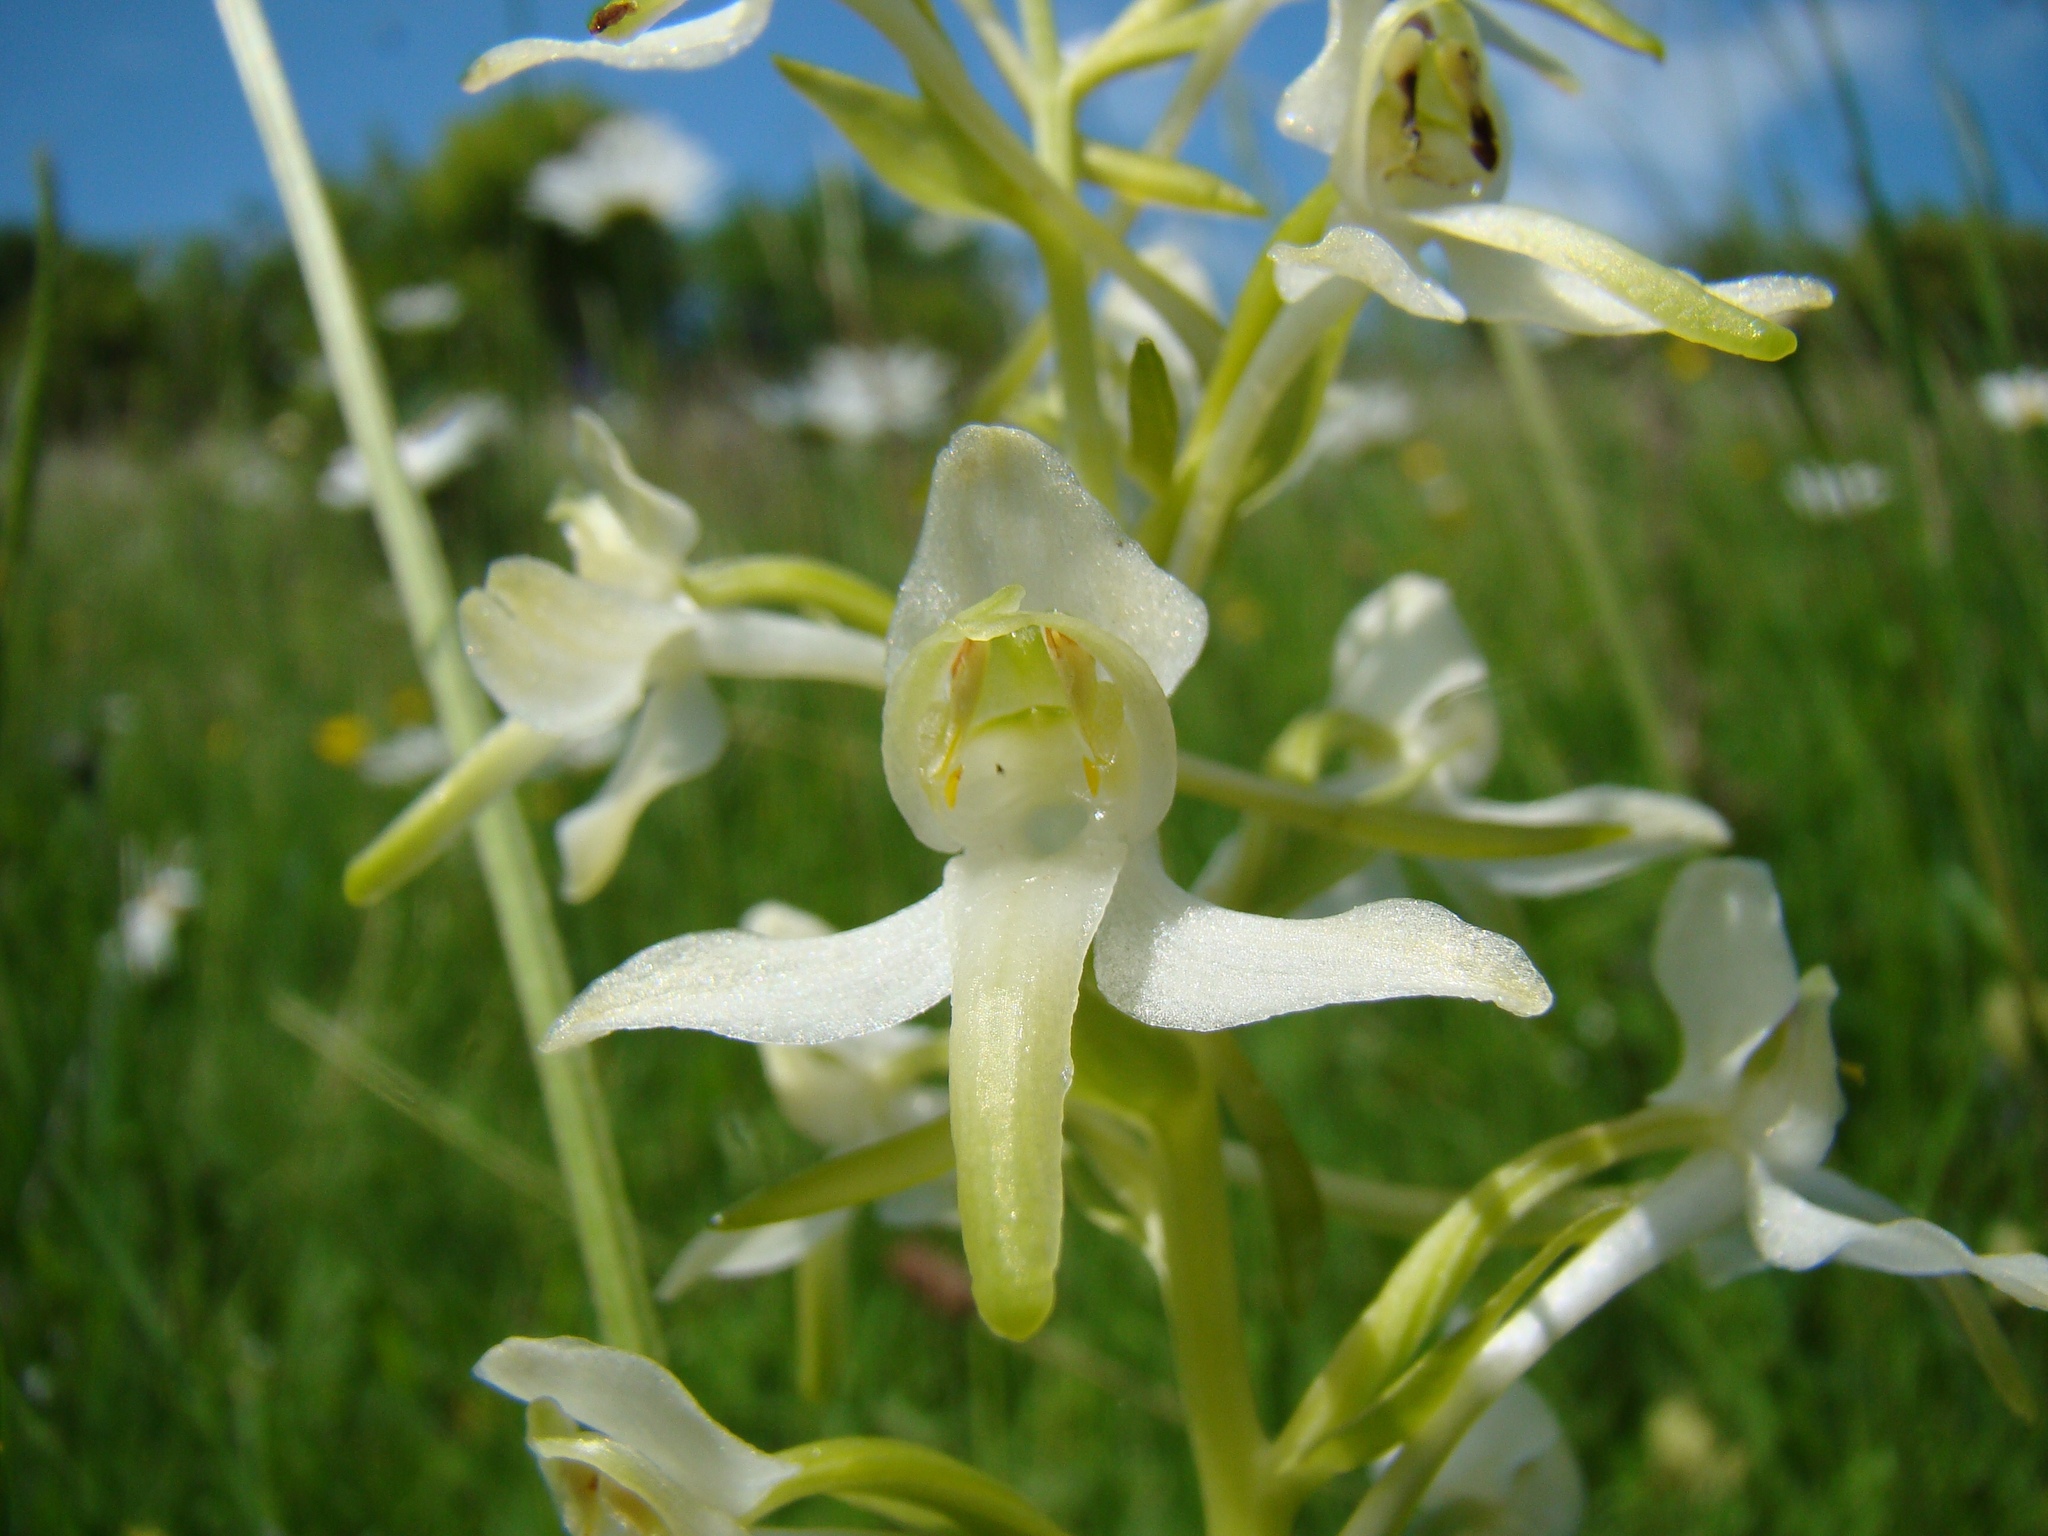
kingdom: Plantae
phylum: Tracheophyta
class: Liliopsida
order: Asparagales
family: Orchidaceae
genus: Platanthera
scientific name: Platanthera chlorantha
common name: Greater butterfly-orchid
